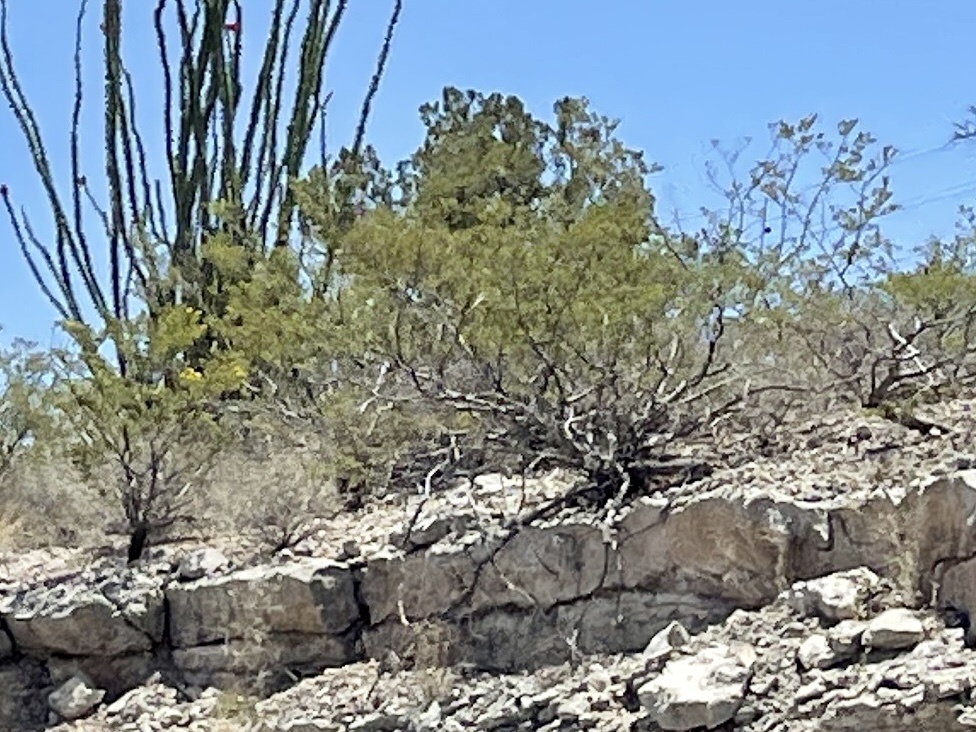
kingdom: Plantae
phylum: Tracheophyta
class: Magnoliopsida
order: Zygophyllales
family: Zygophyllaceae
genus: Larrea
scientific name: Larrea tridentata
